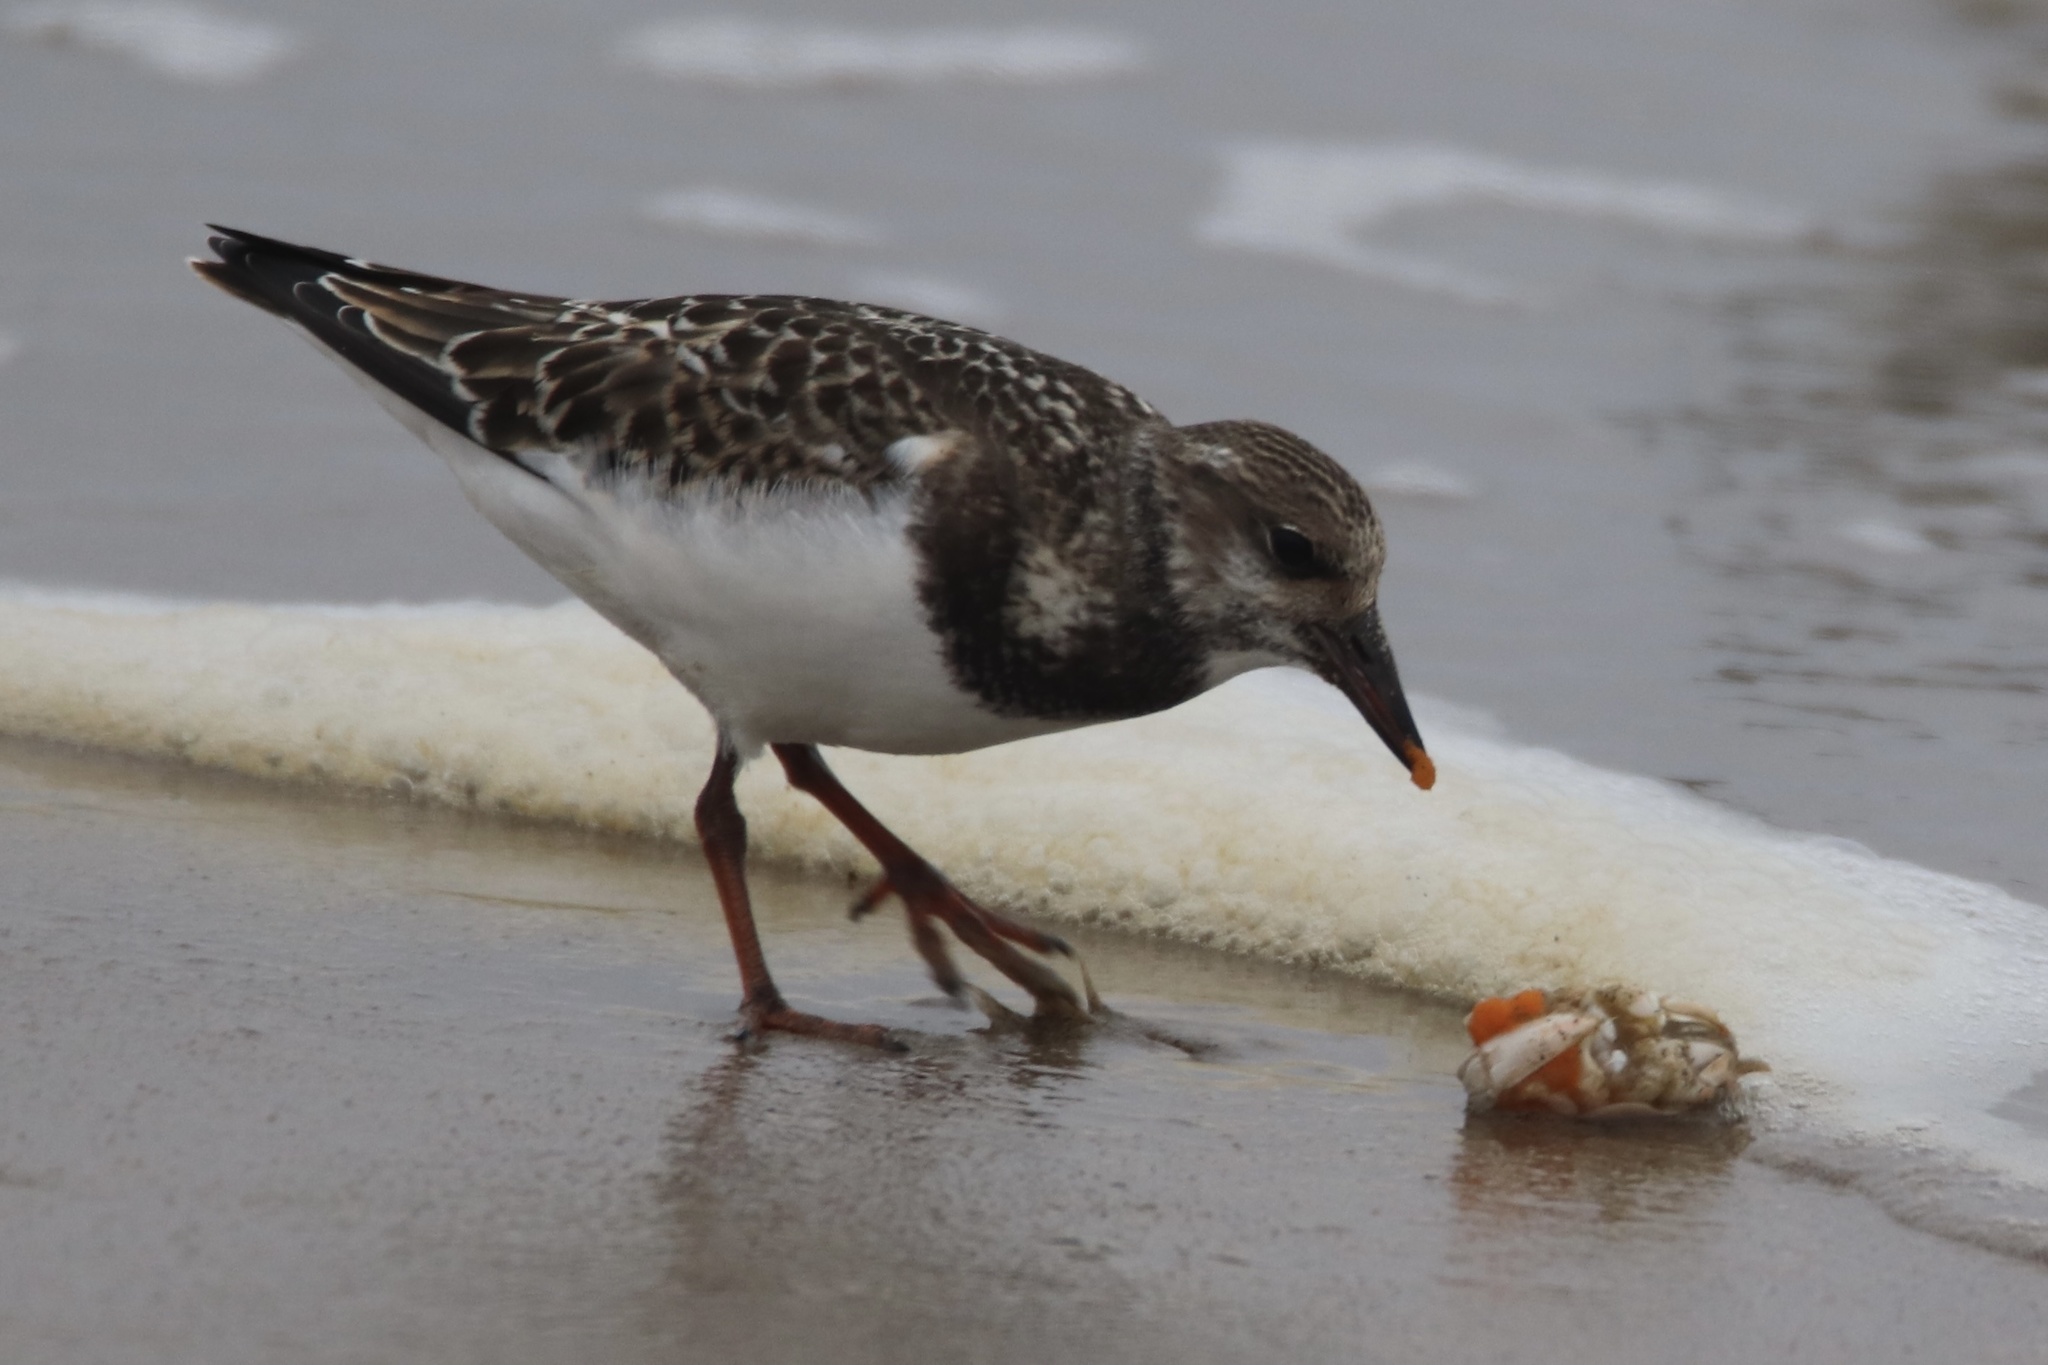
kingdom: Animalia
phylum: Chordata
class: Aves
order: Charadriiformes
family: Scolopacidae
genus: Arenaria
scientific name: Arenaria interpres
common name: Ruddy turnstone
